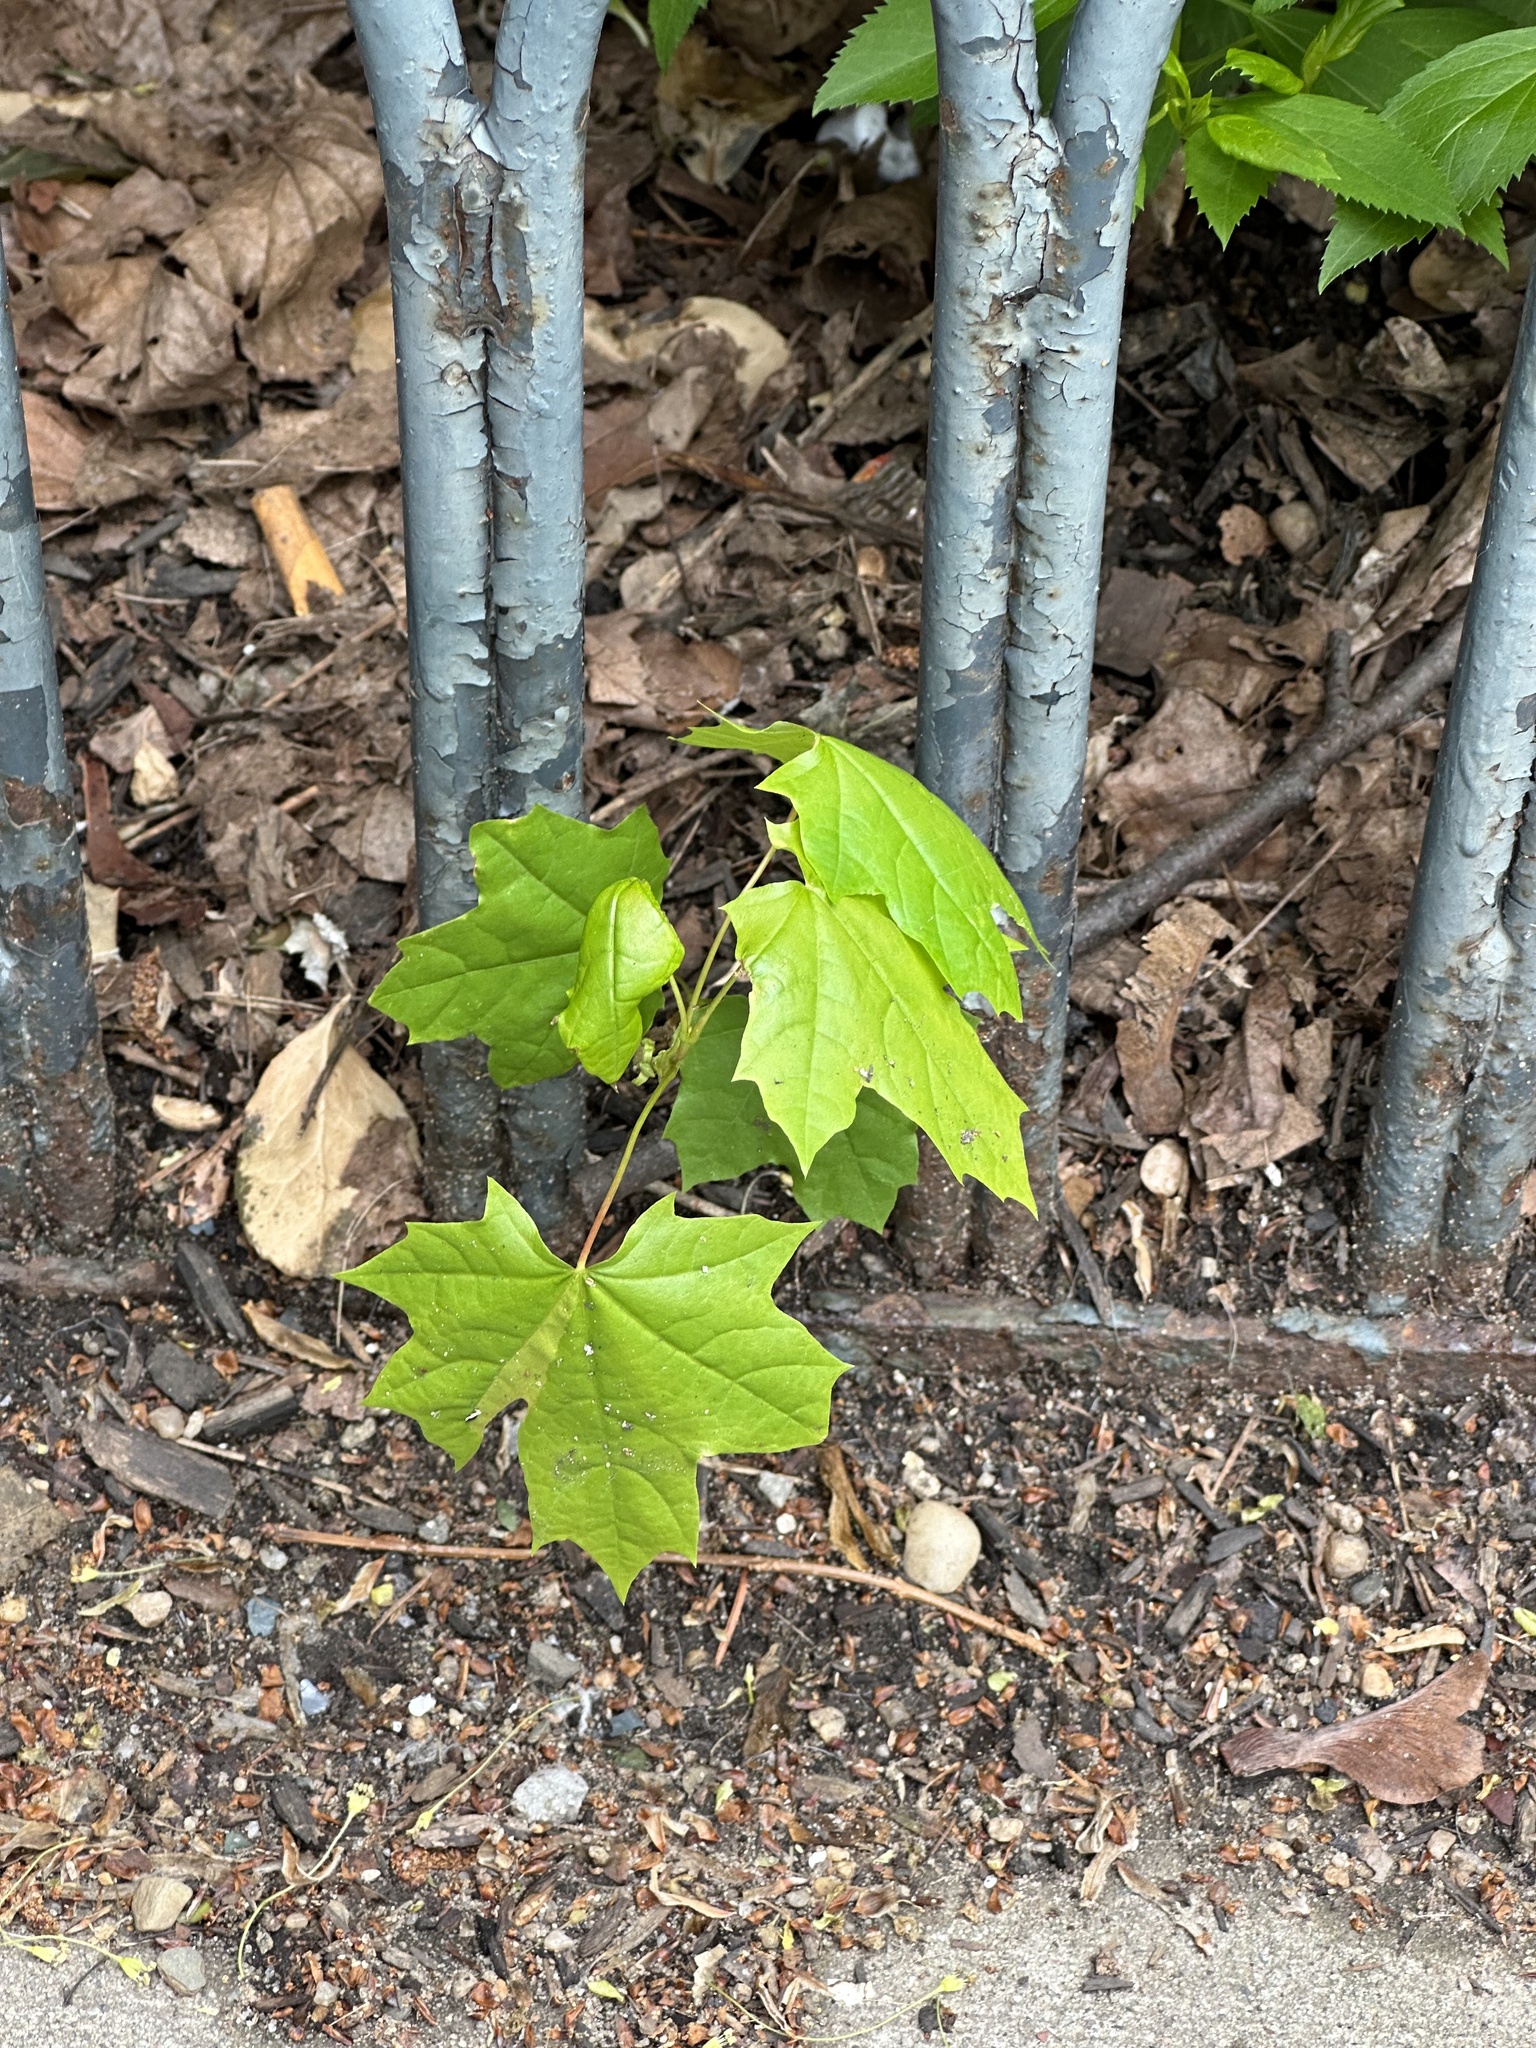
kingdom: Plantae
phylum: Tracheophyta
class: Magnoliopsida
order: Sapindales
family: Sapindaceae
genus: Acer
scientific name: Acer platanoides
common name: Norway maple
